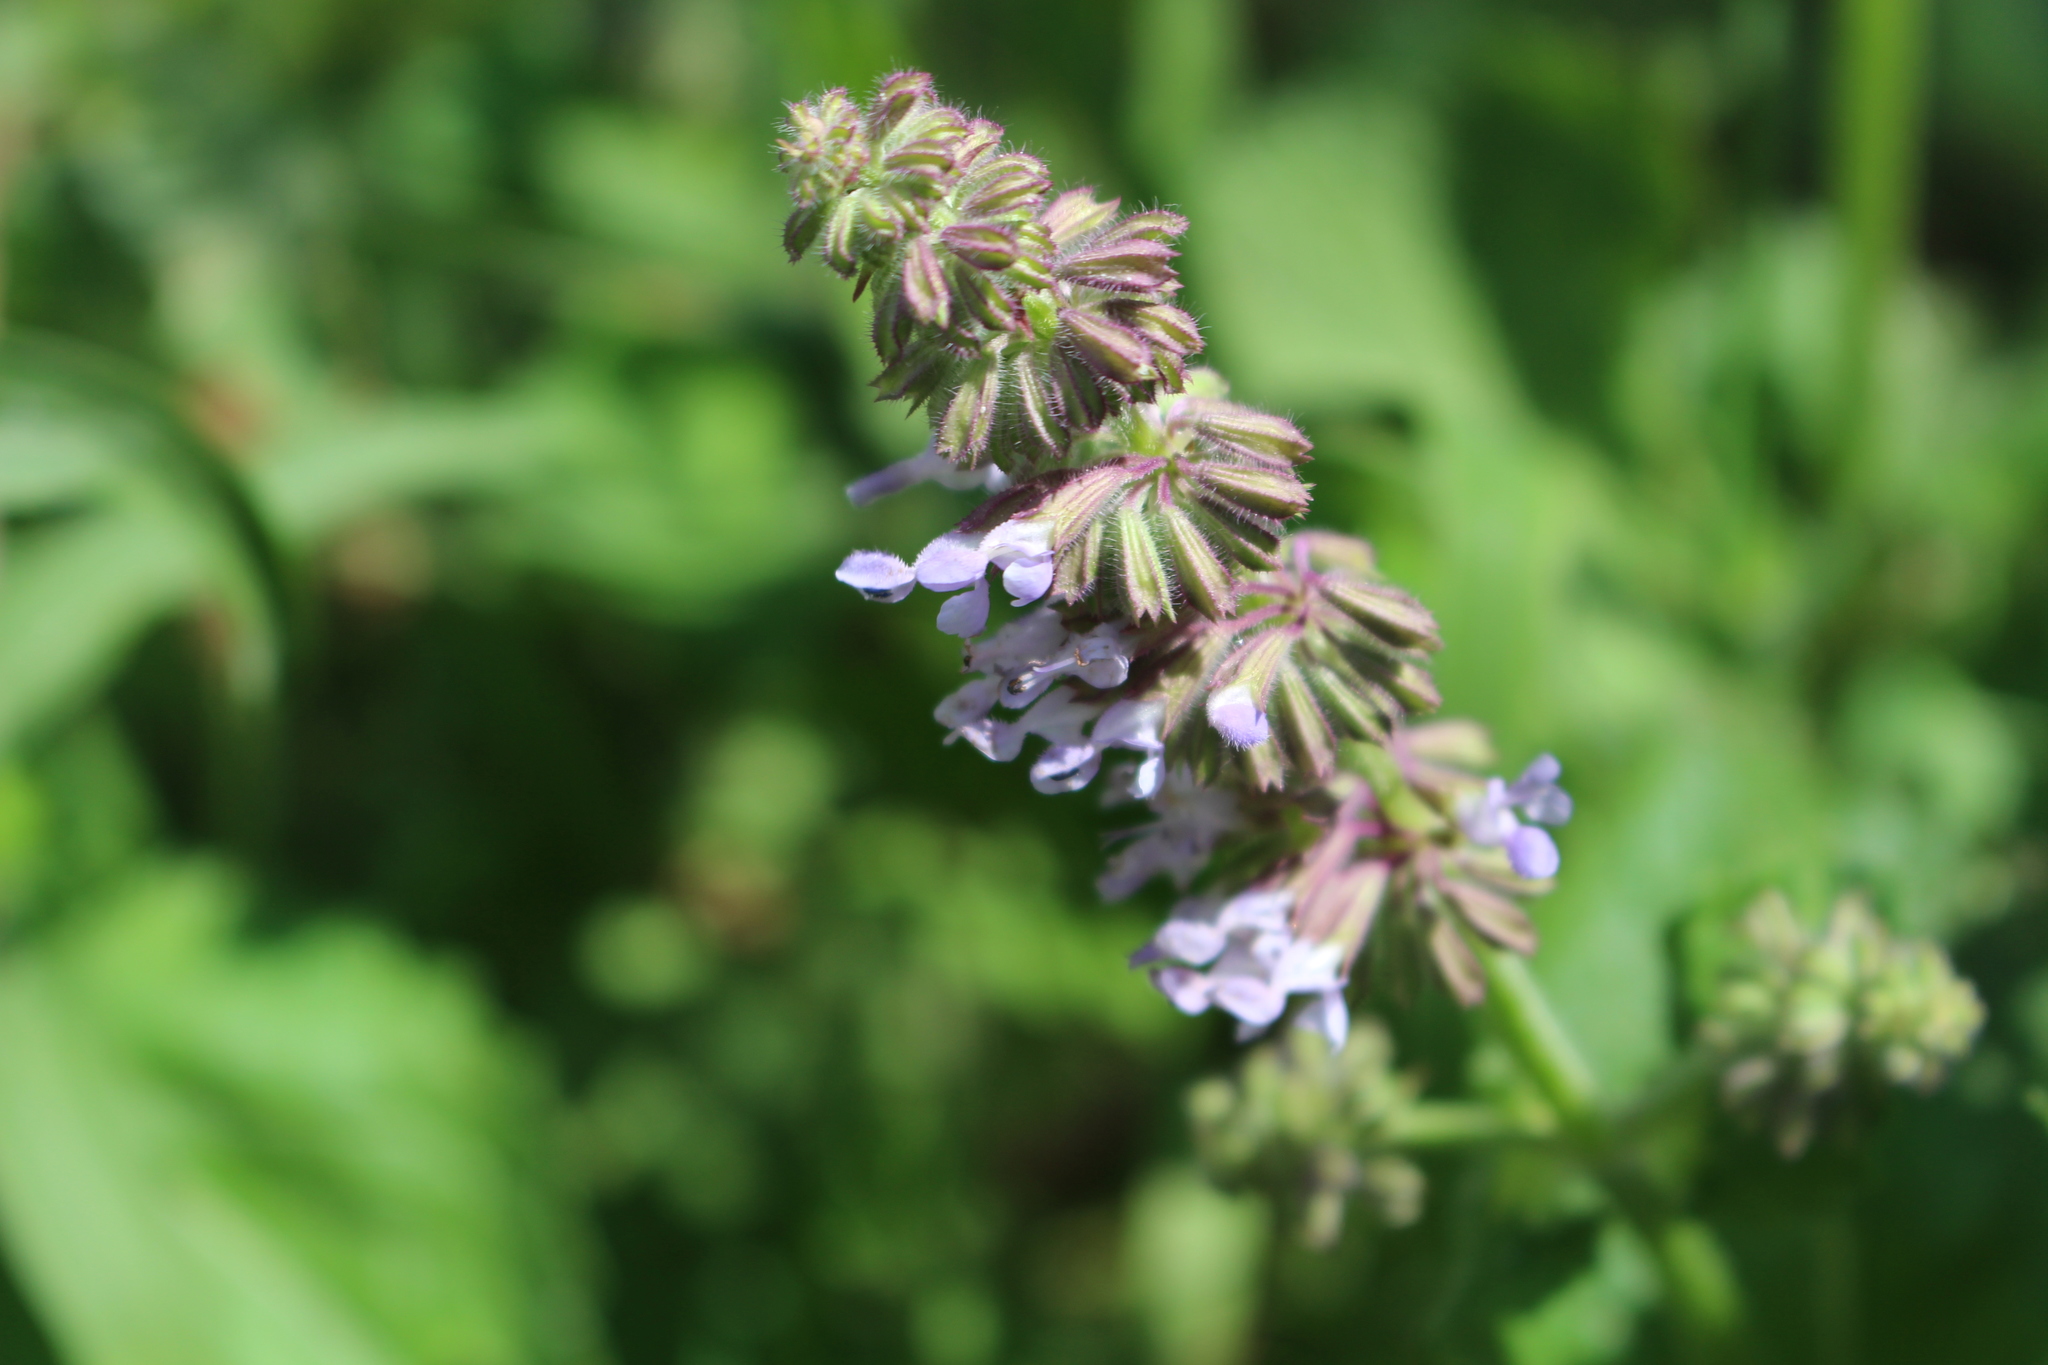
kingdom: Plantae
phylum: Tracheophyta
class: Magnoliopsida
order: Lamiales
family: Lamiaceae
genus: Salvia
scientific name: Salvia verticillata
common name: Whorled clary
